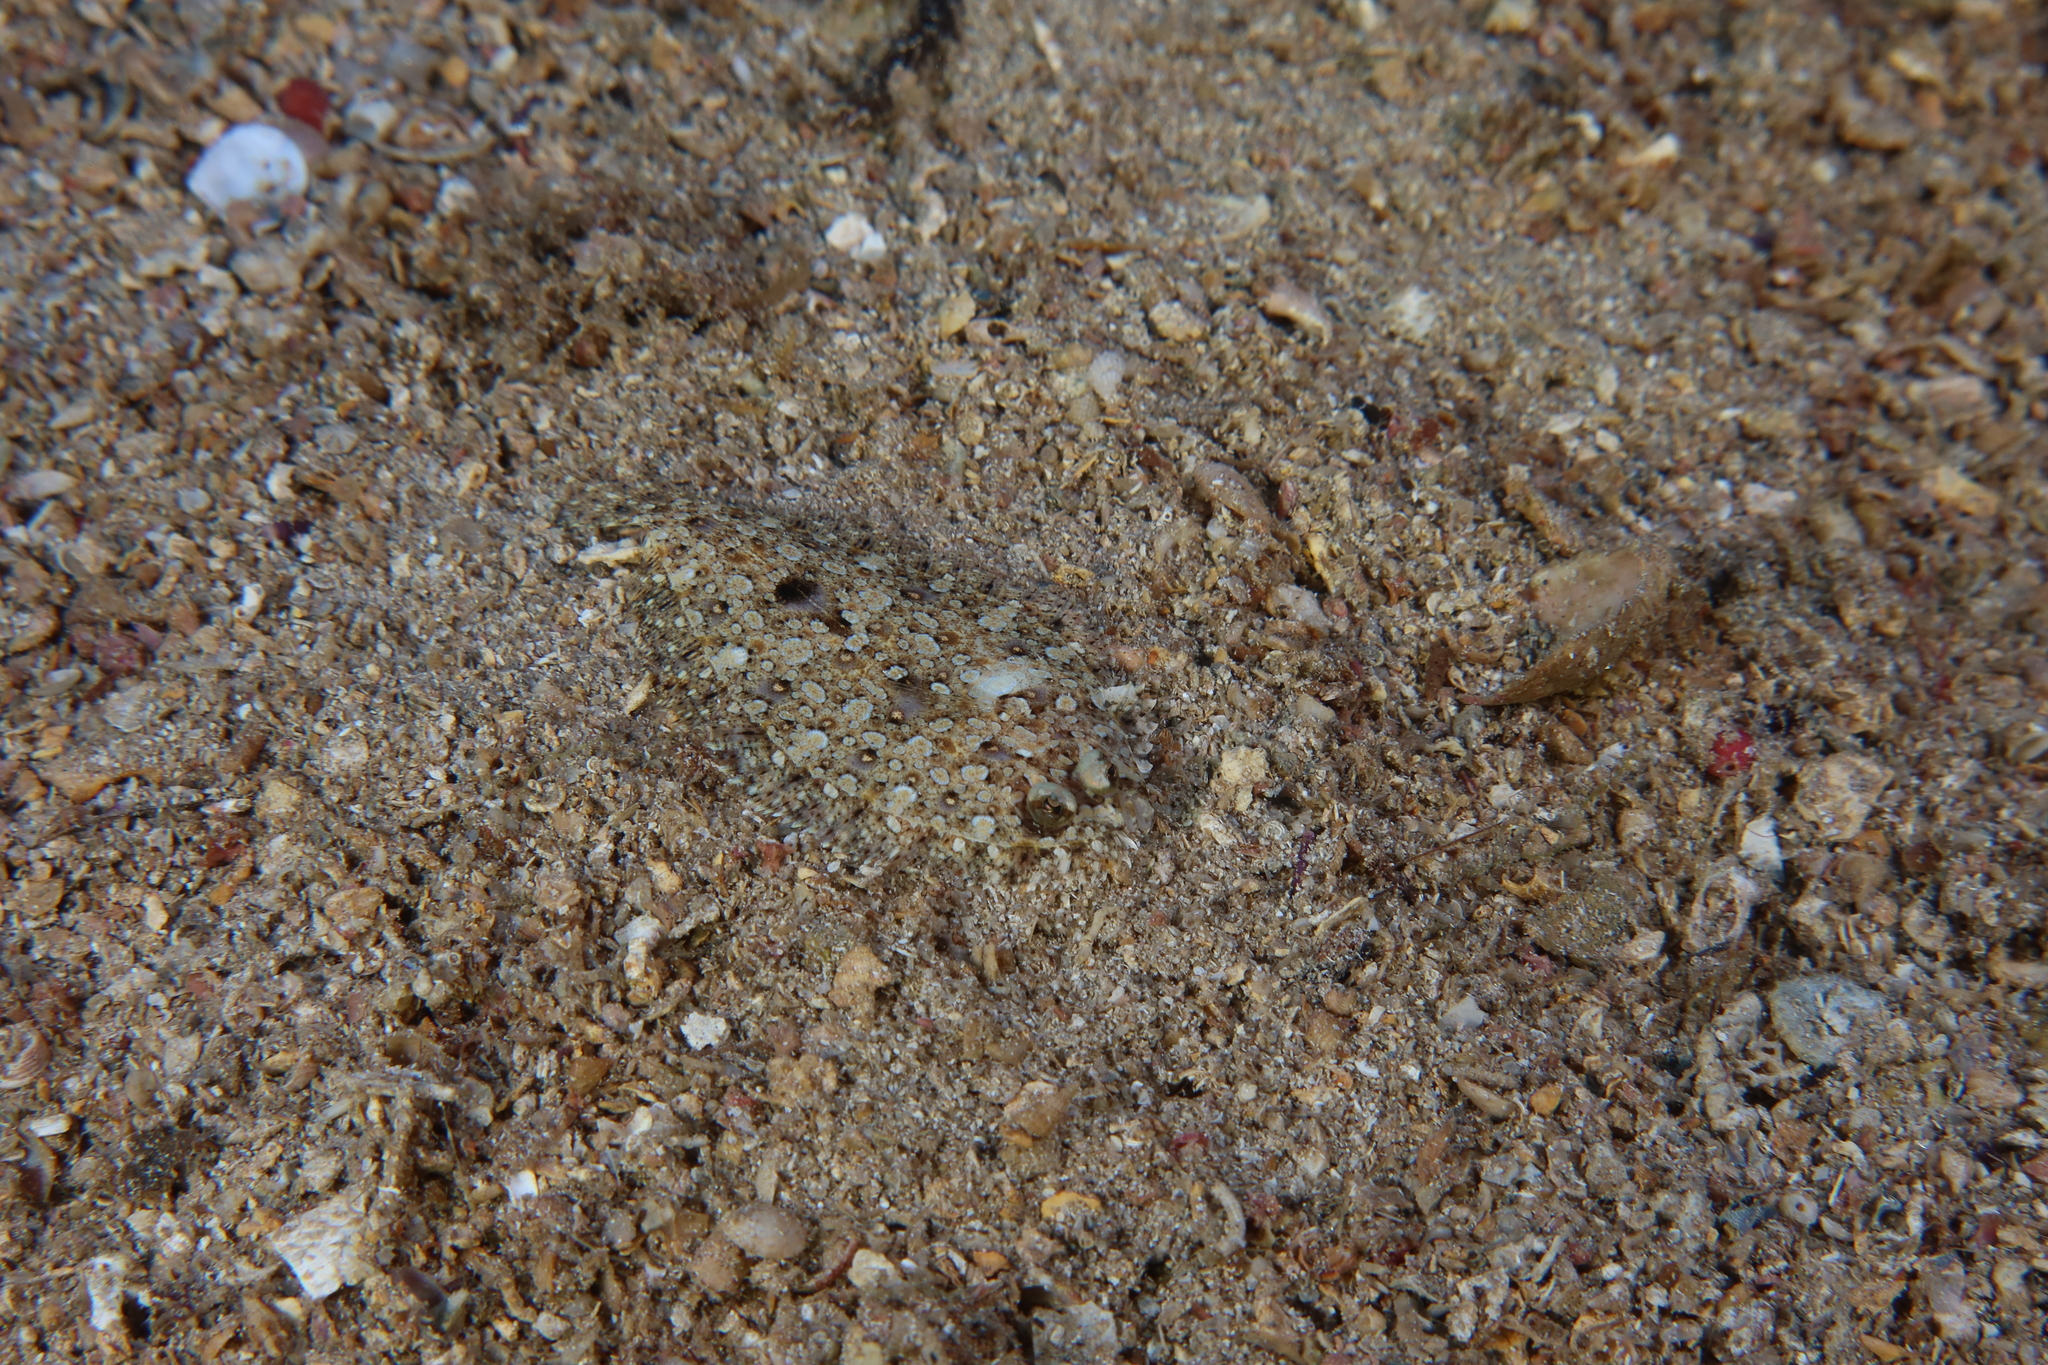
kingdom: Animalia
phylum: Chordata
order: Pleuronectiformes
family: Bothidae
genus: Bothus
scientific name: Bothus podas
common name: Wide-eyed flounder
